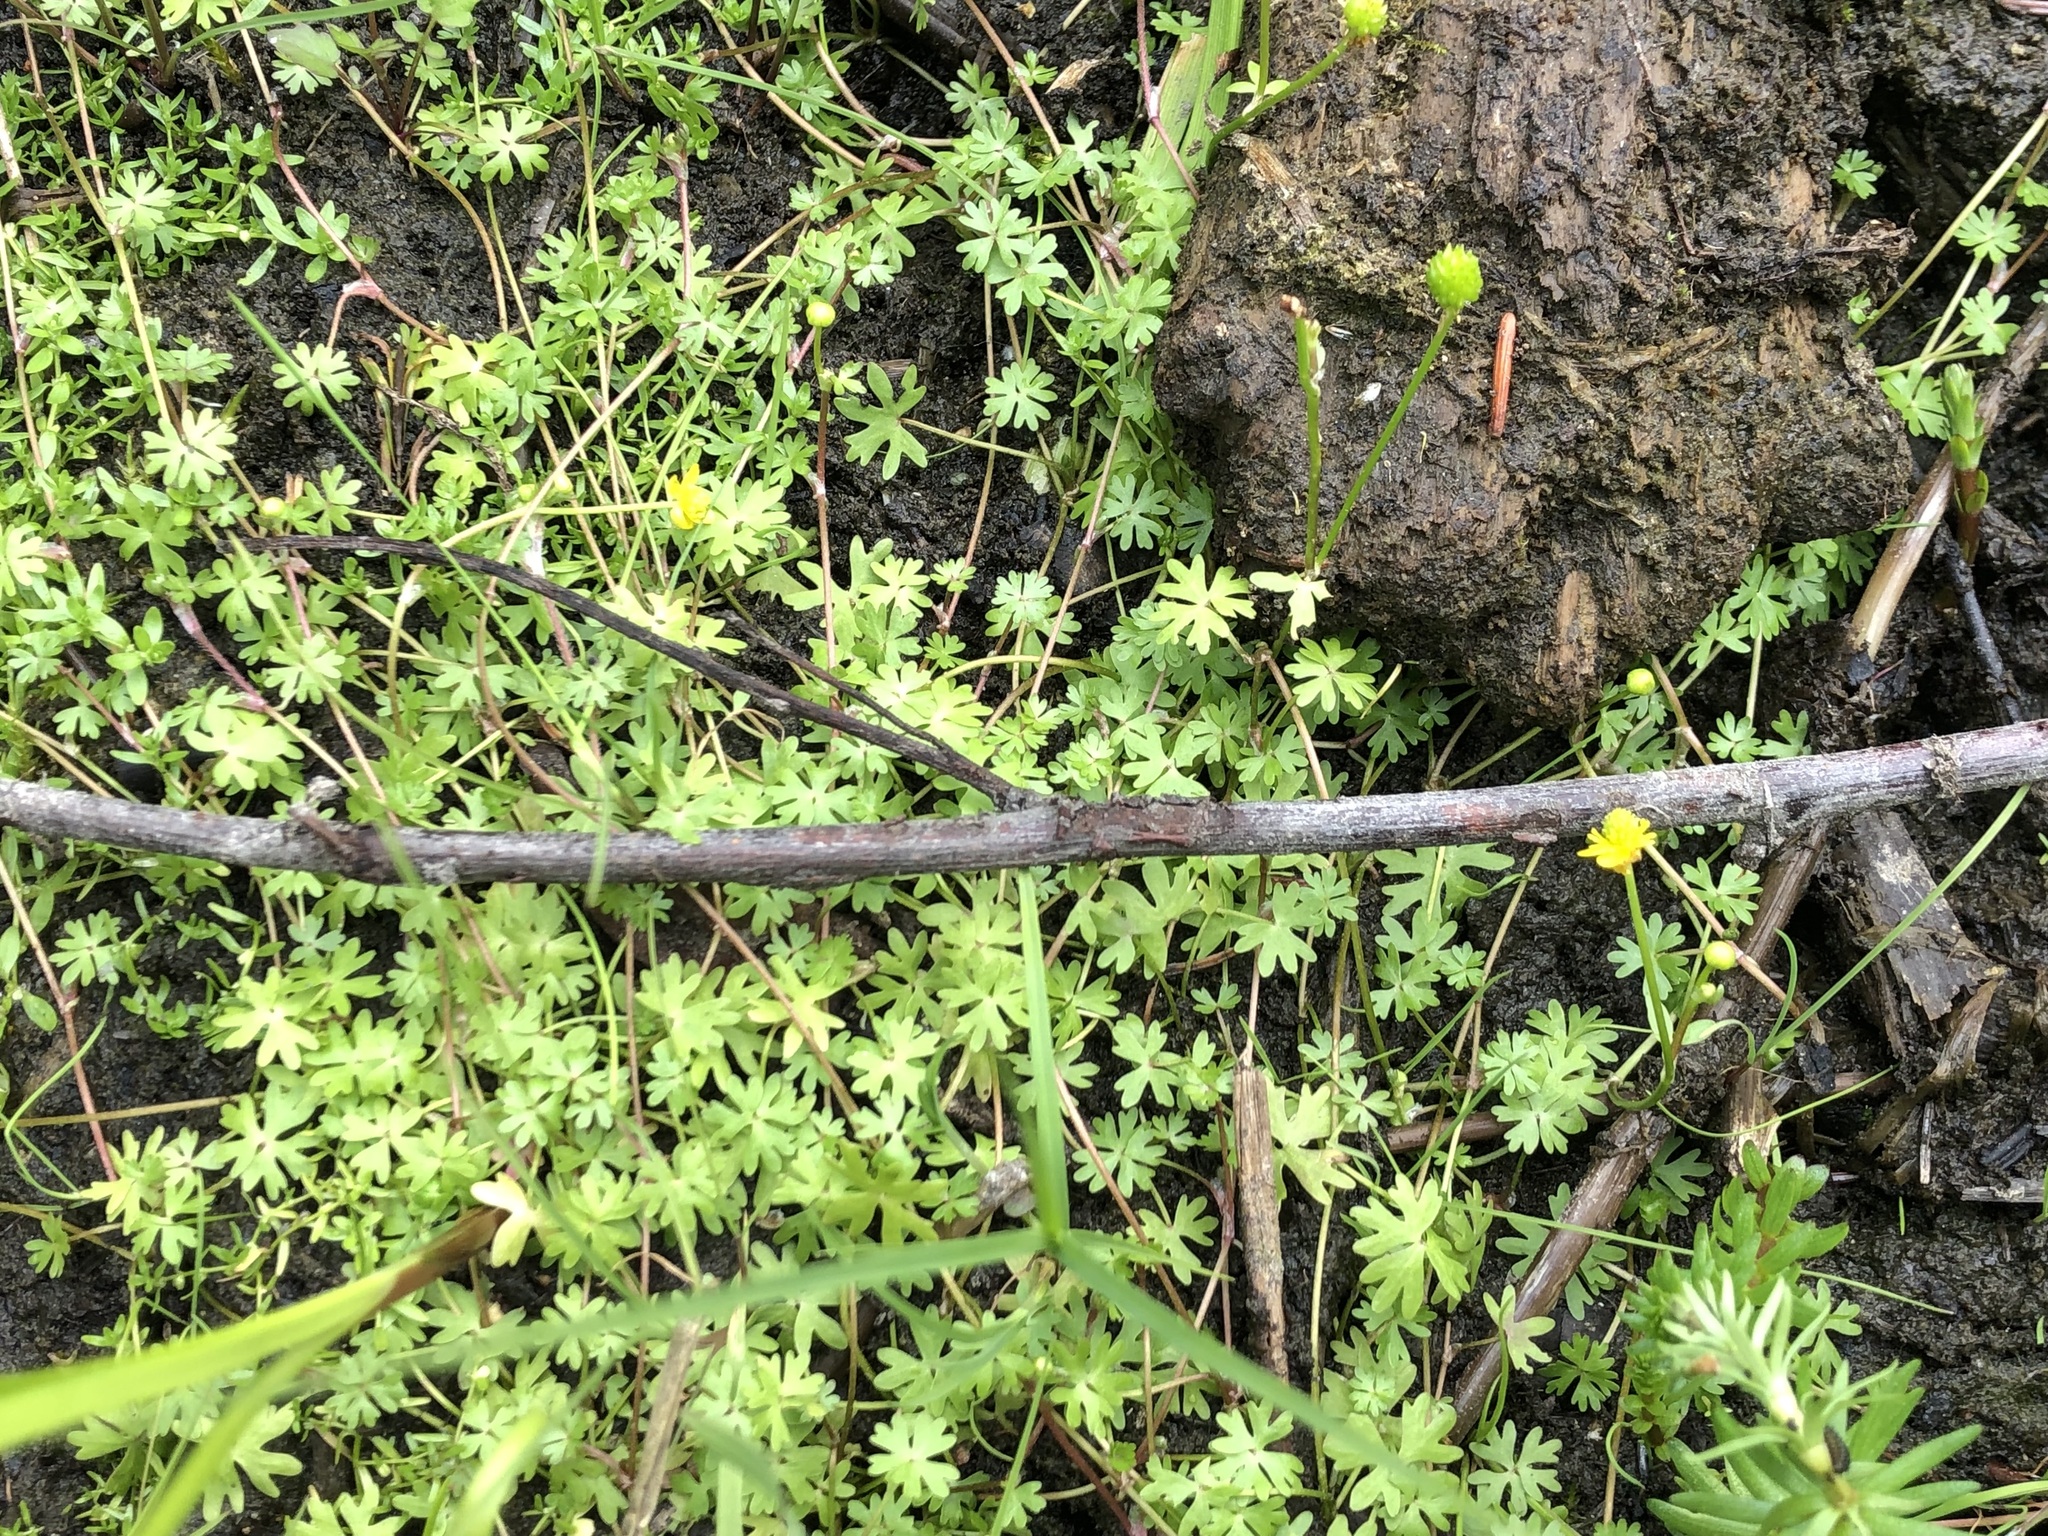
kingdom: Plantae
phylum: Tracheophyta
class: Magnoliopsida
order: Ranunculales
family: Ranunculaceae
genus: Ranunculus
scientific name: Ranunculus gmelinii
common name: Gmelin's buttercup
